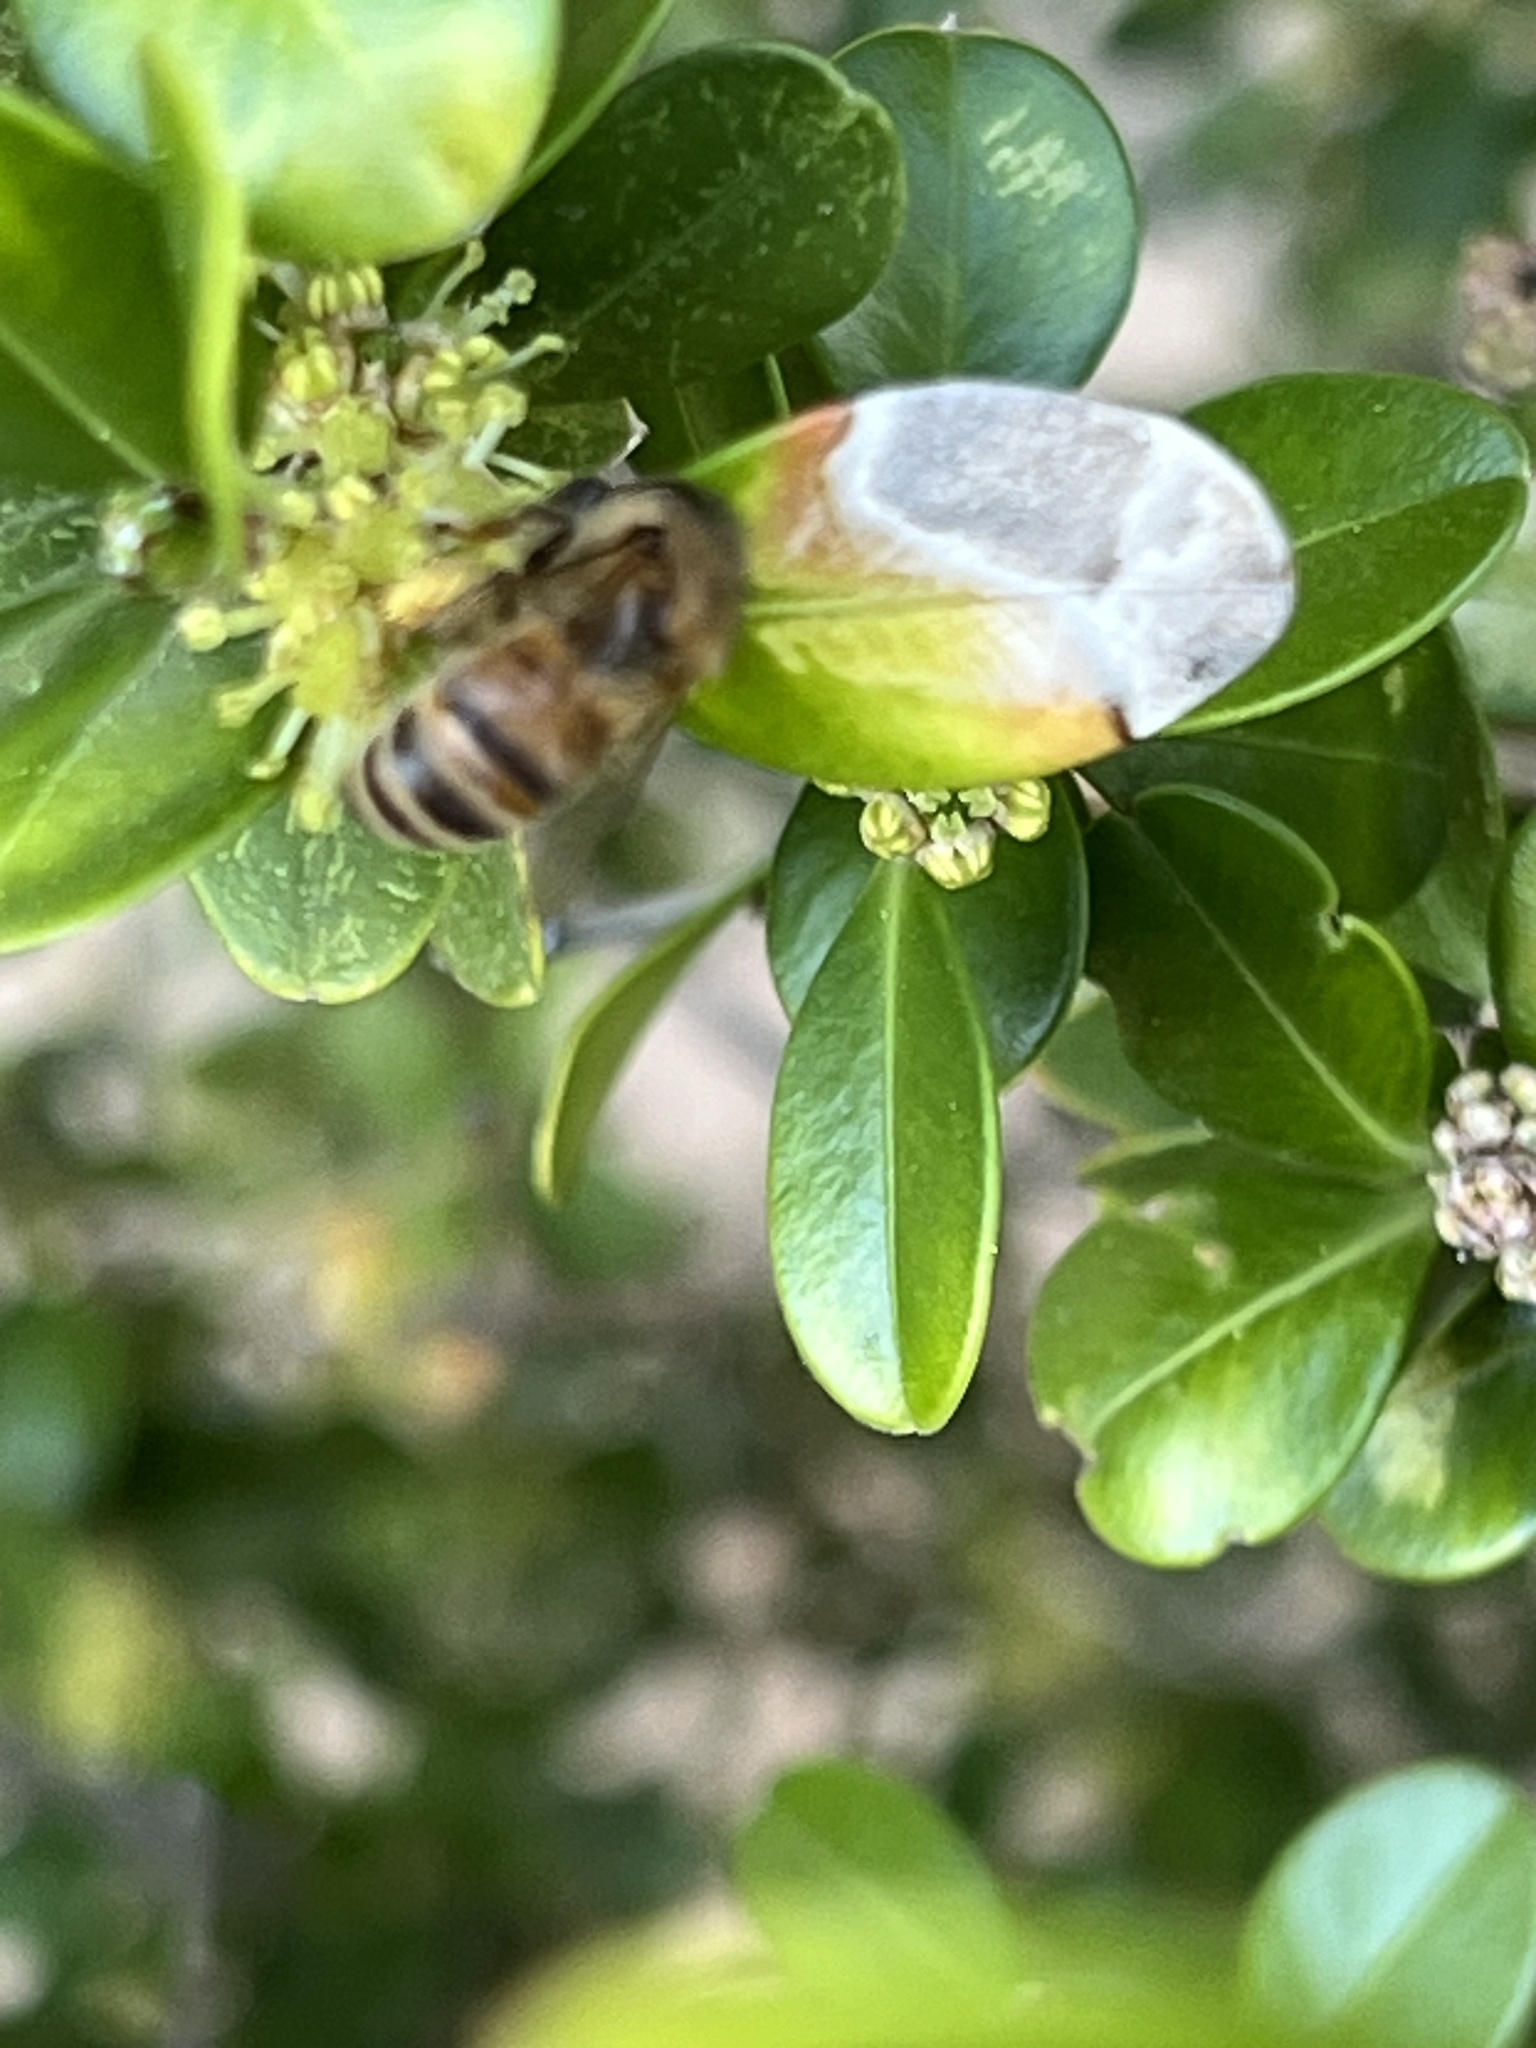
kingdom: Animalia
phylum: Arthropoda
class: Insecta
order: Hymenoptera
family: Apidae
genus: Apis
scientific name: Apis mellifera
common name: Honey bee
